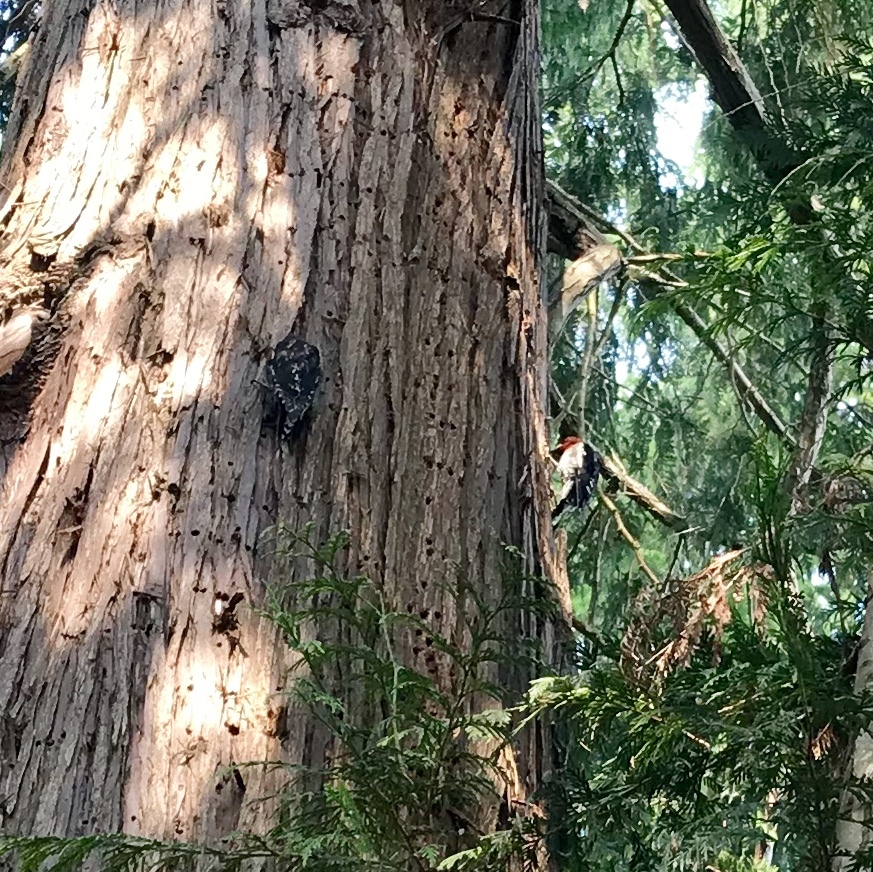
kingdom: Animalia
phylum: Chordata
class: Aves
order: Piciformes
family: Picidae
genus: Sphyrapicus
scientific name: Sphyrapicus ruber
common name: Red-breasted sapsucker
